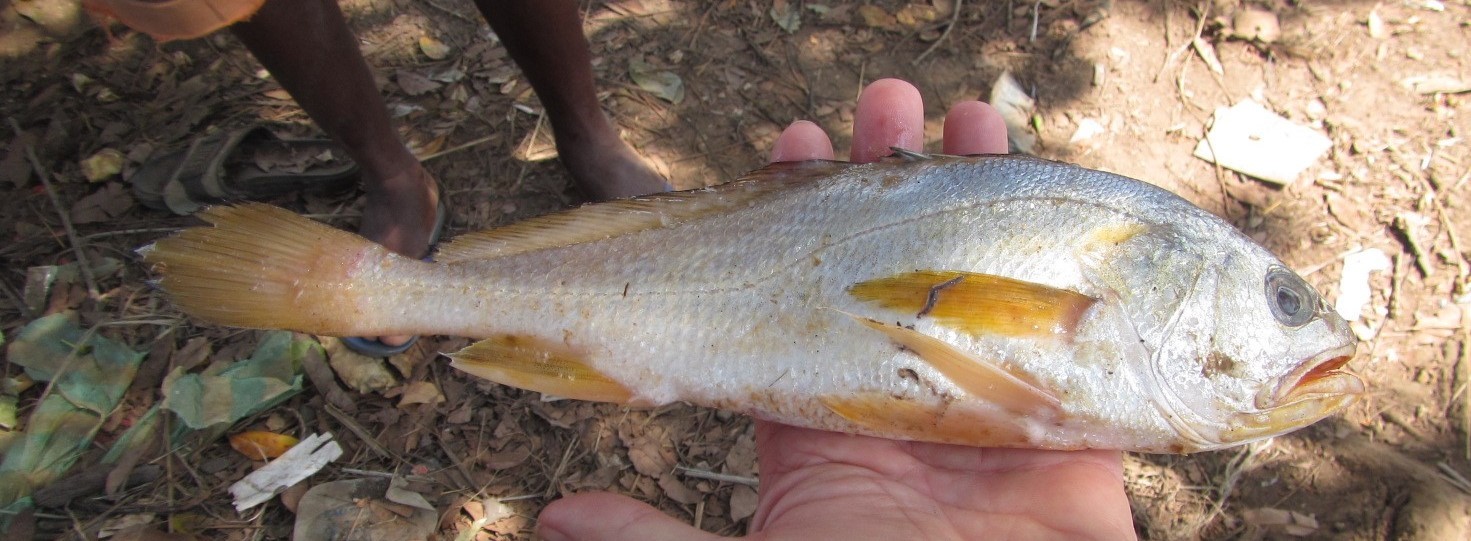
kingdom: Animalia
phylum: Chordata
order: Perciformes
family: Sciaenidae
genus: Pseudotolithus
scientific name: Pseudotolithus elongatus
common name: Bobo croaker
